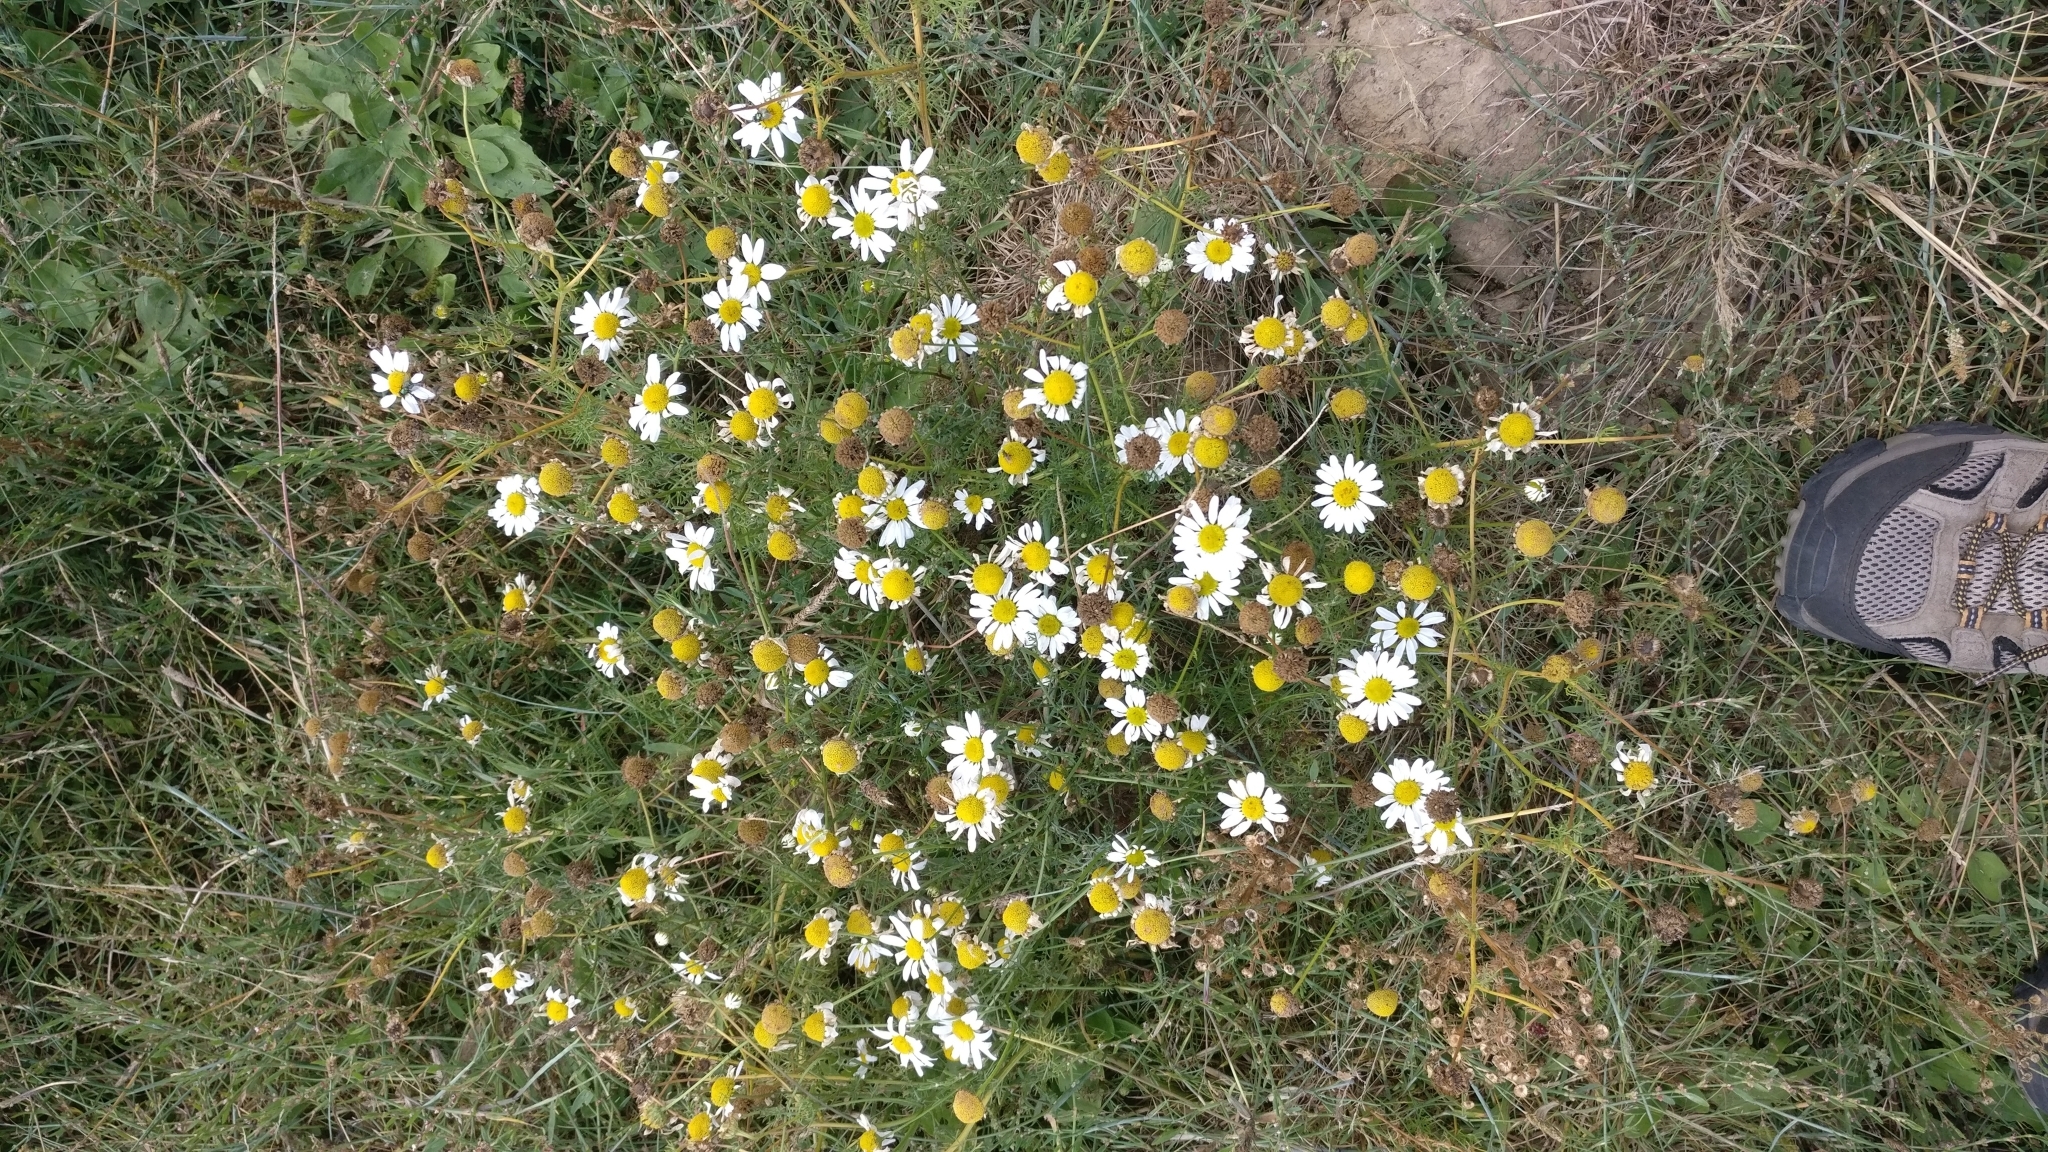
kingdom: Plantae
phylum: Tracheophyta
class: Magnoliopsida
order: Asterales
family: Asteraceae
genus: Matricaria
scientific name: Matricaria chamomilla
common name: Scented mayweed
